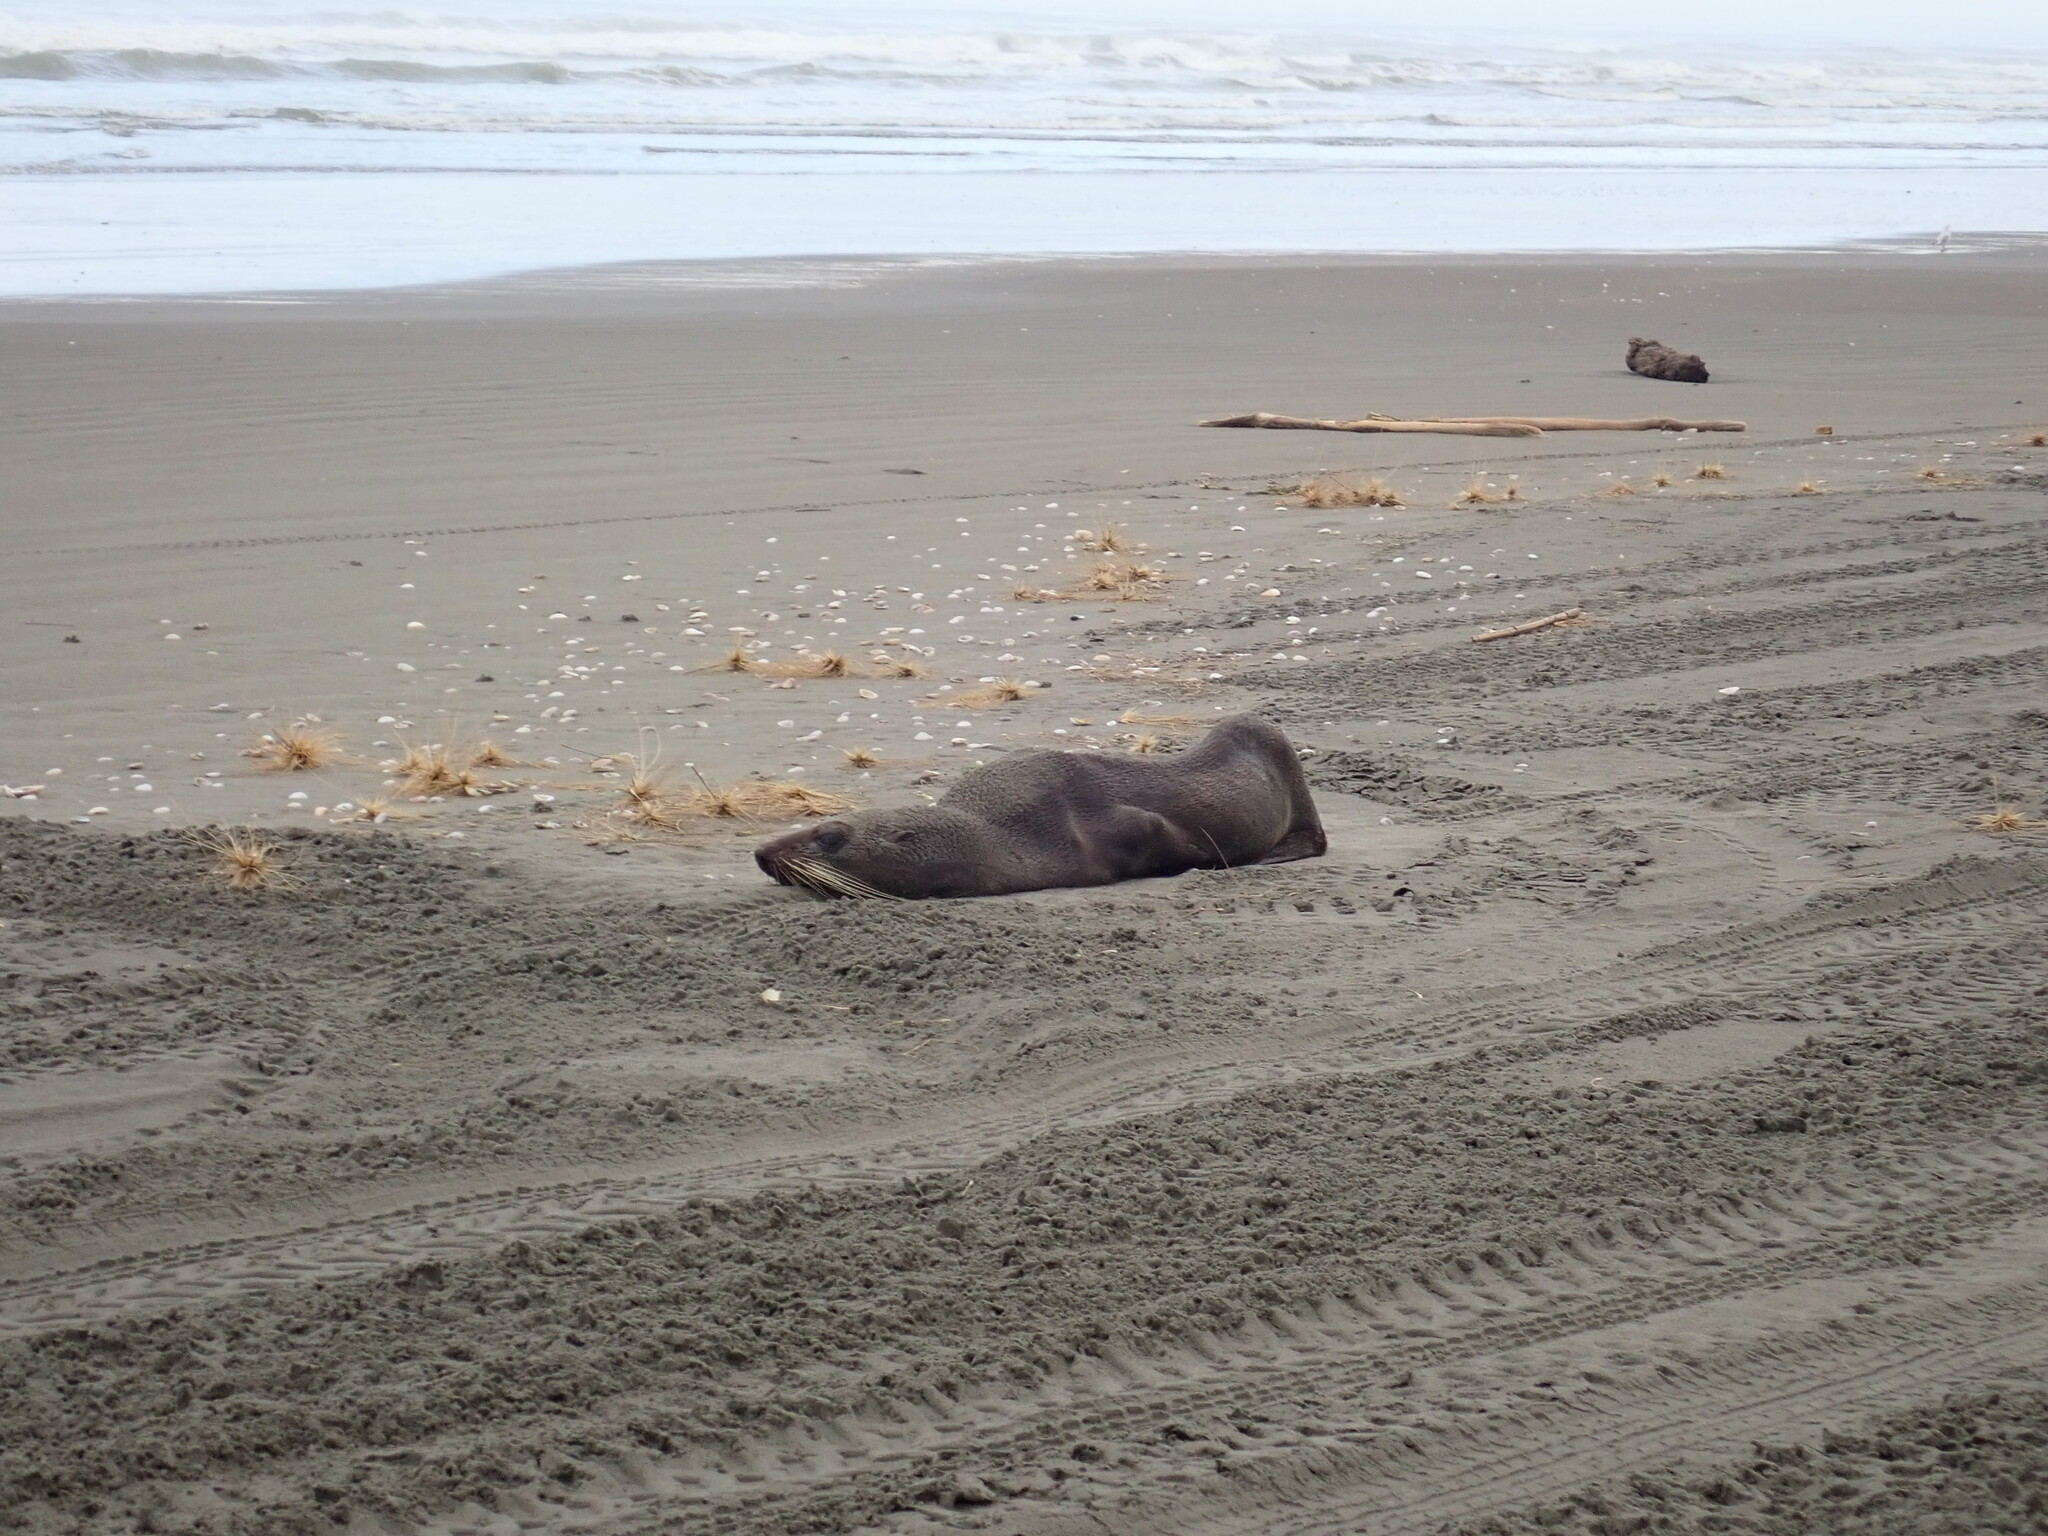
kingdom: Animalia
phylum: Chordata
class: Mammalia
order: Carnivora
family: Otariidae
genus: Arctocephalus
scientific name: Arctocephalus forsteri
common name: New zealand fur seal
